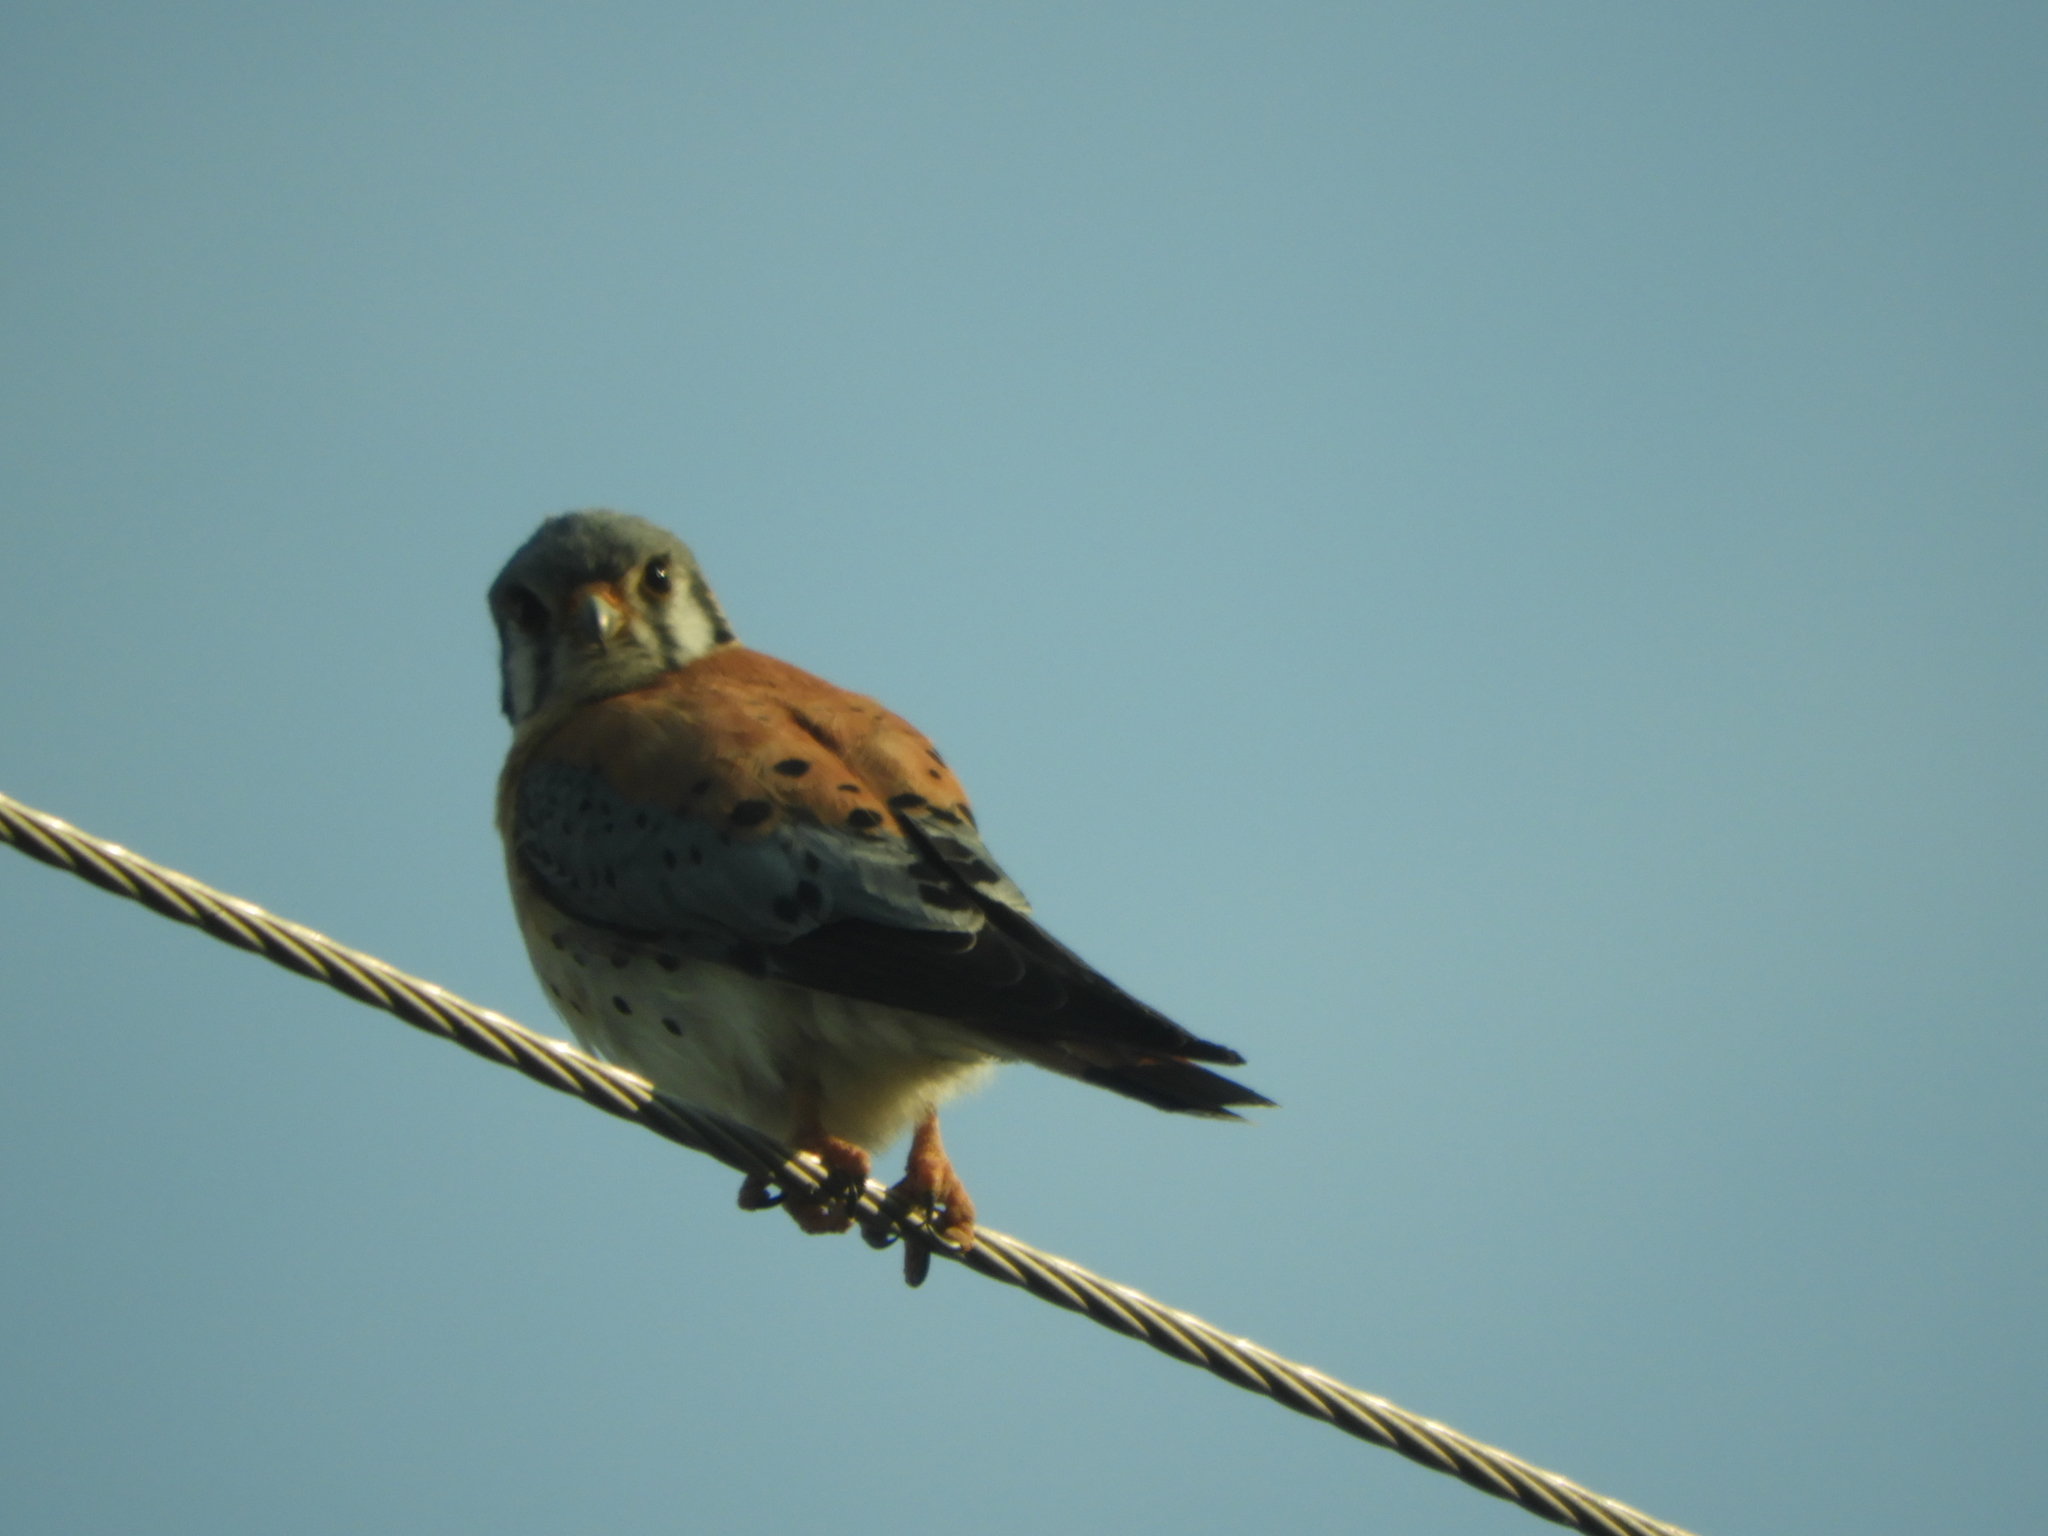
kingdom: Animalia
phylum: Chordata
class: Aves
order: Falconiformes
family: Falconidae
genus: Falco
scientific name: Falco sparverius
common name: American kestrel
